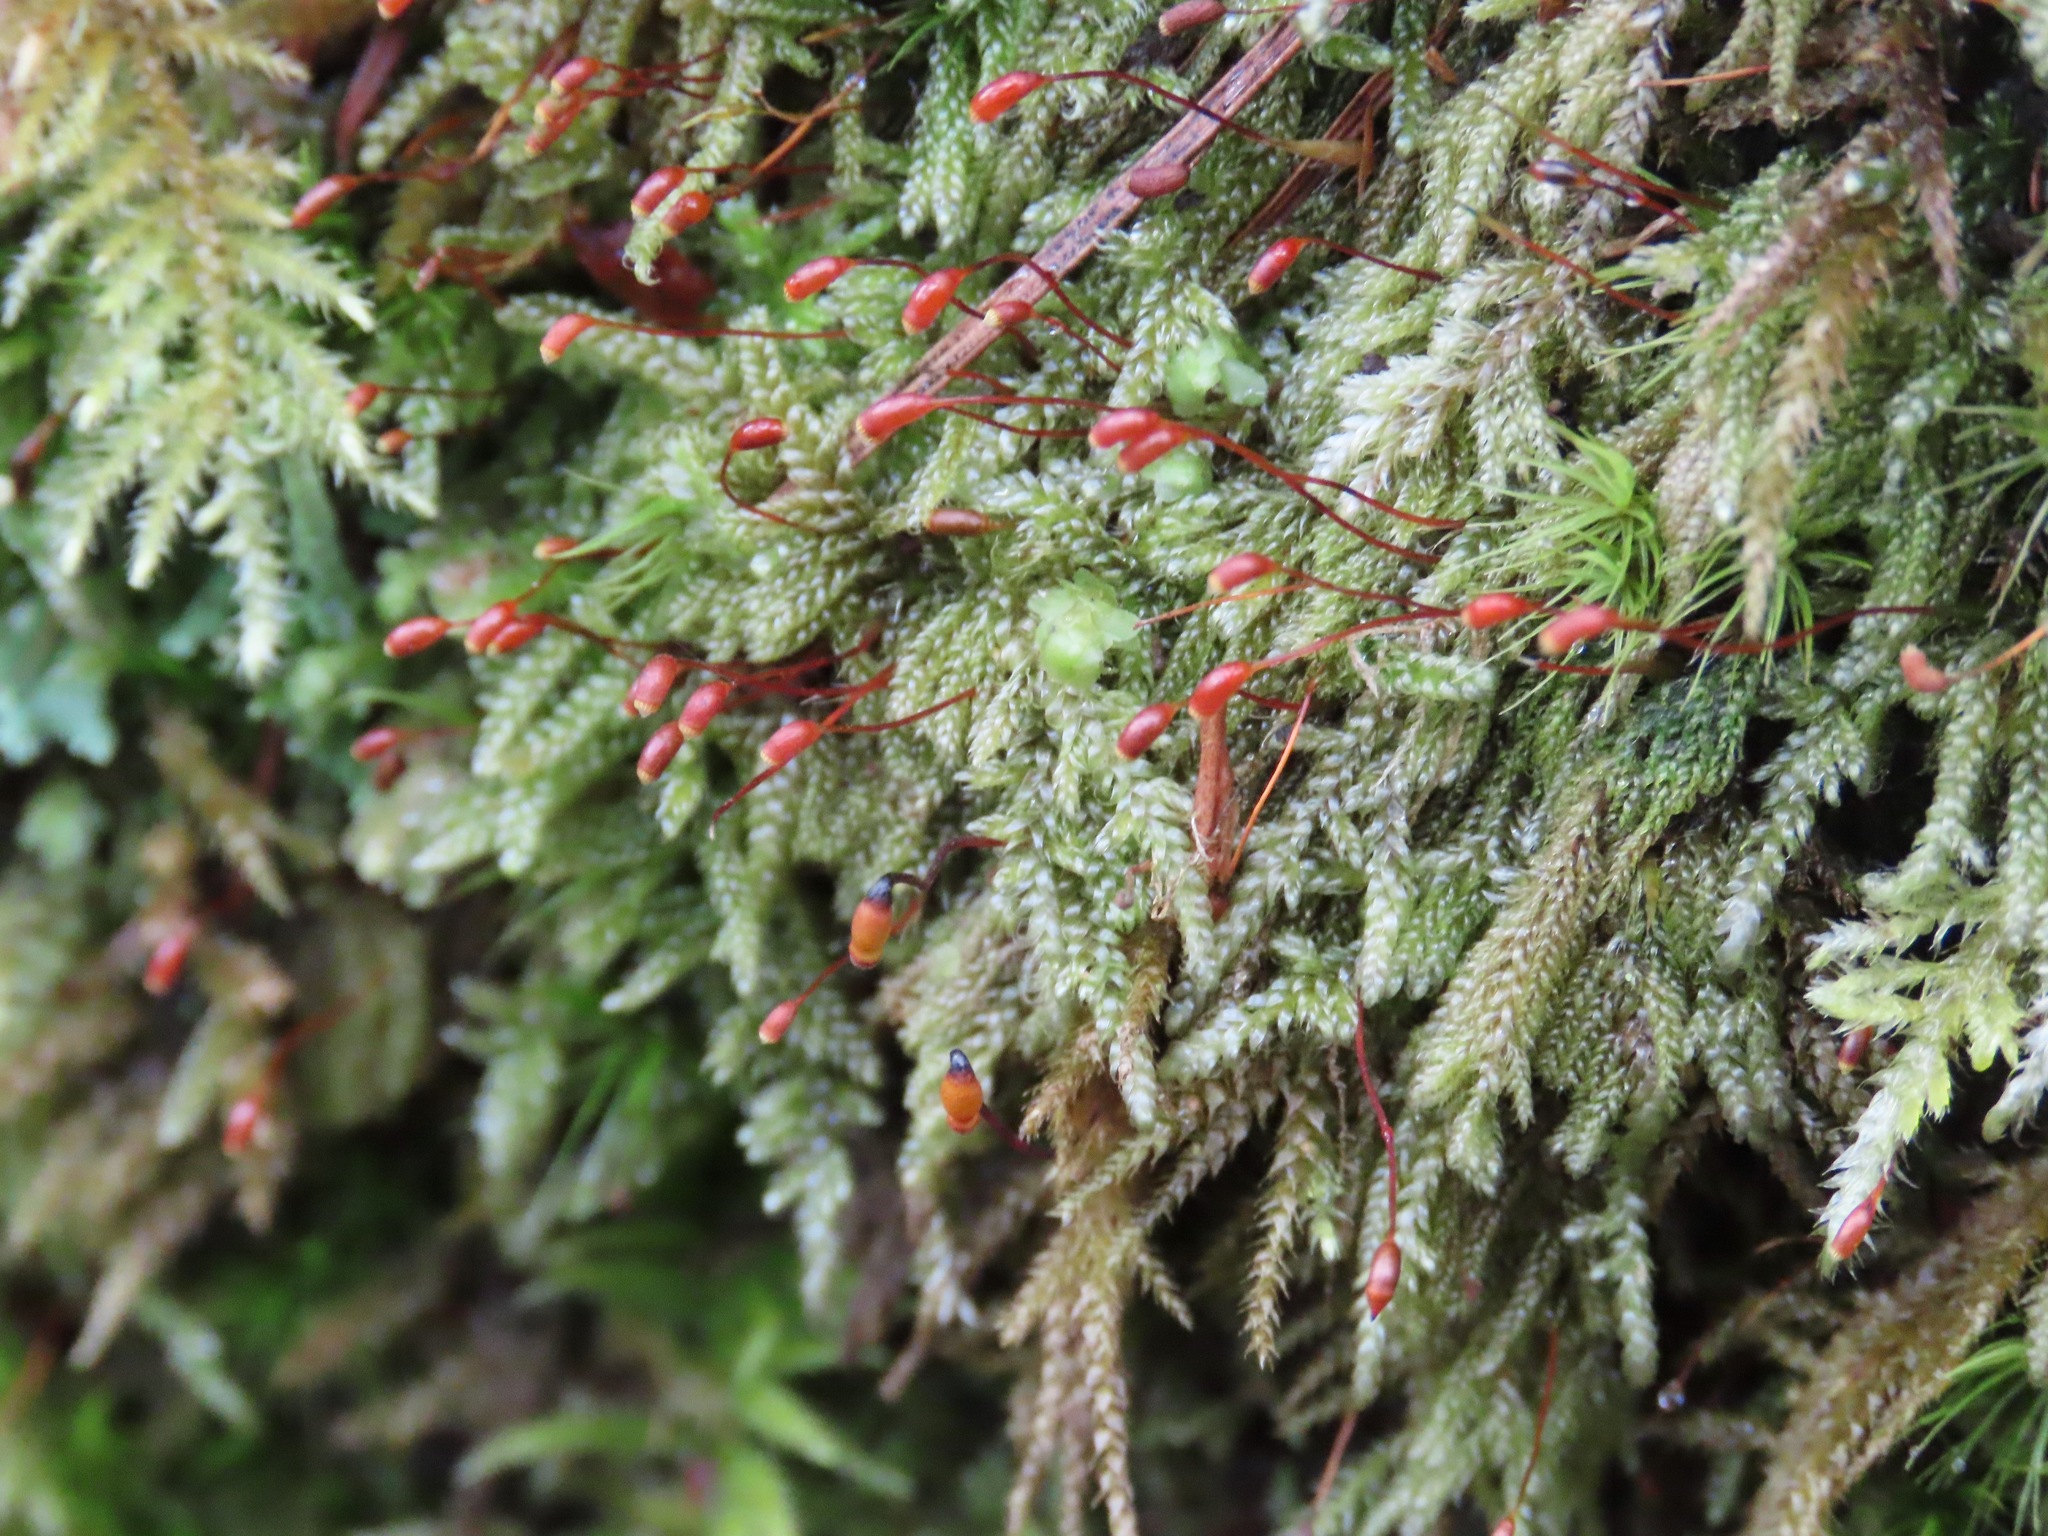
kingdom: Plantae
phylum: Bryophyta
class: Bryopsida
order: Hypnales
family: Pylaisiadelphaceae
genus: Trochophyllohypnum
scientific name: Trochophyllohypnum circinale
